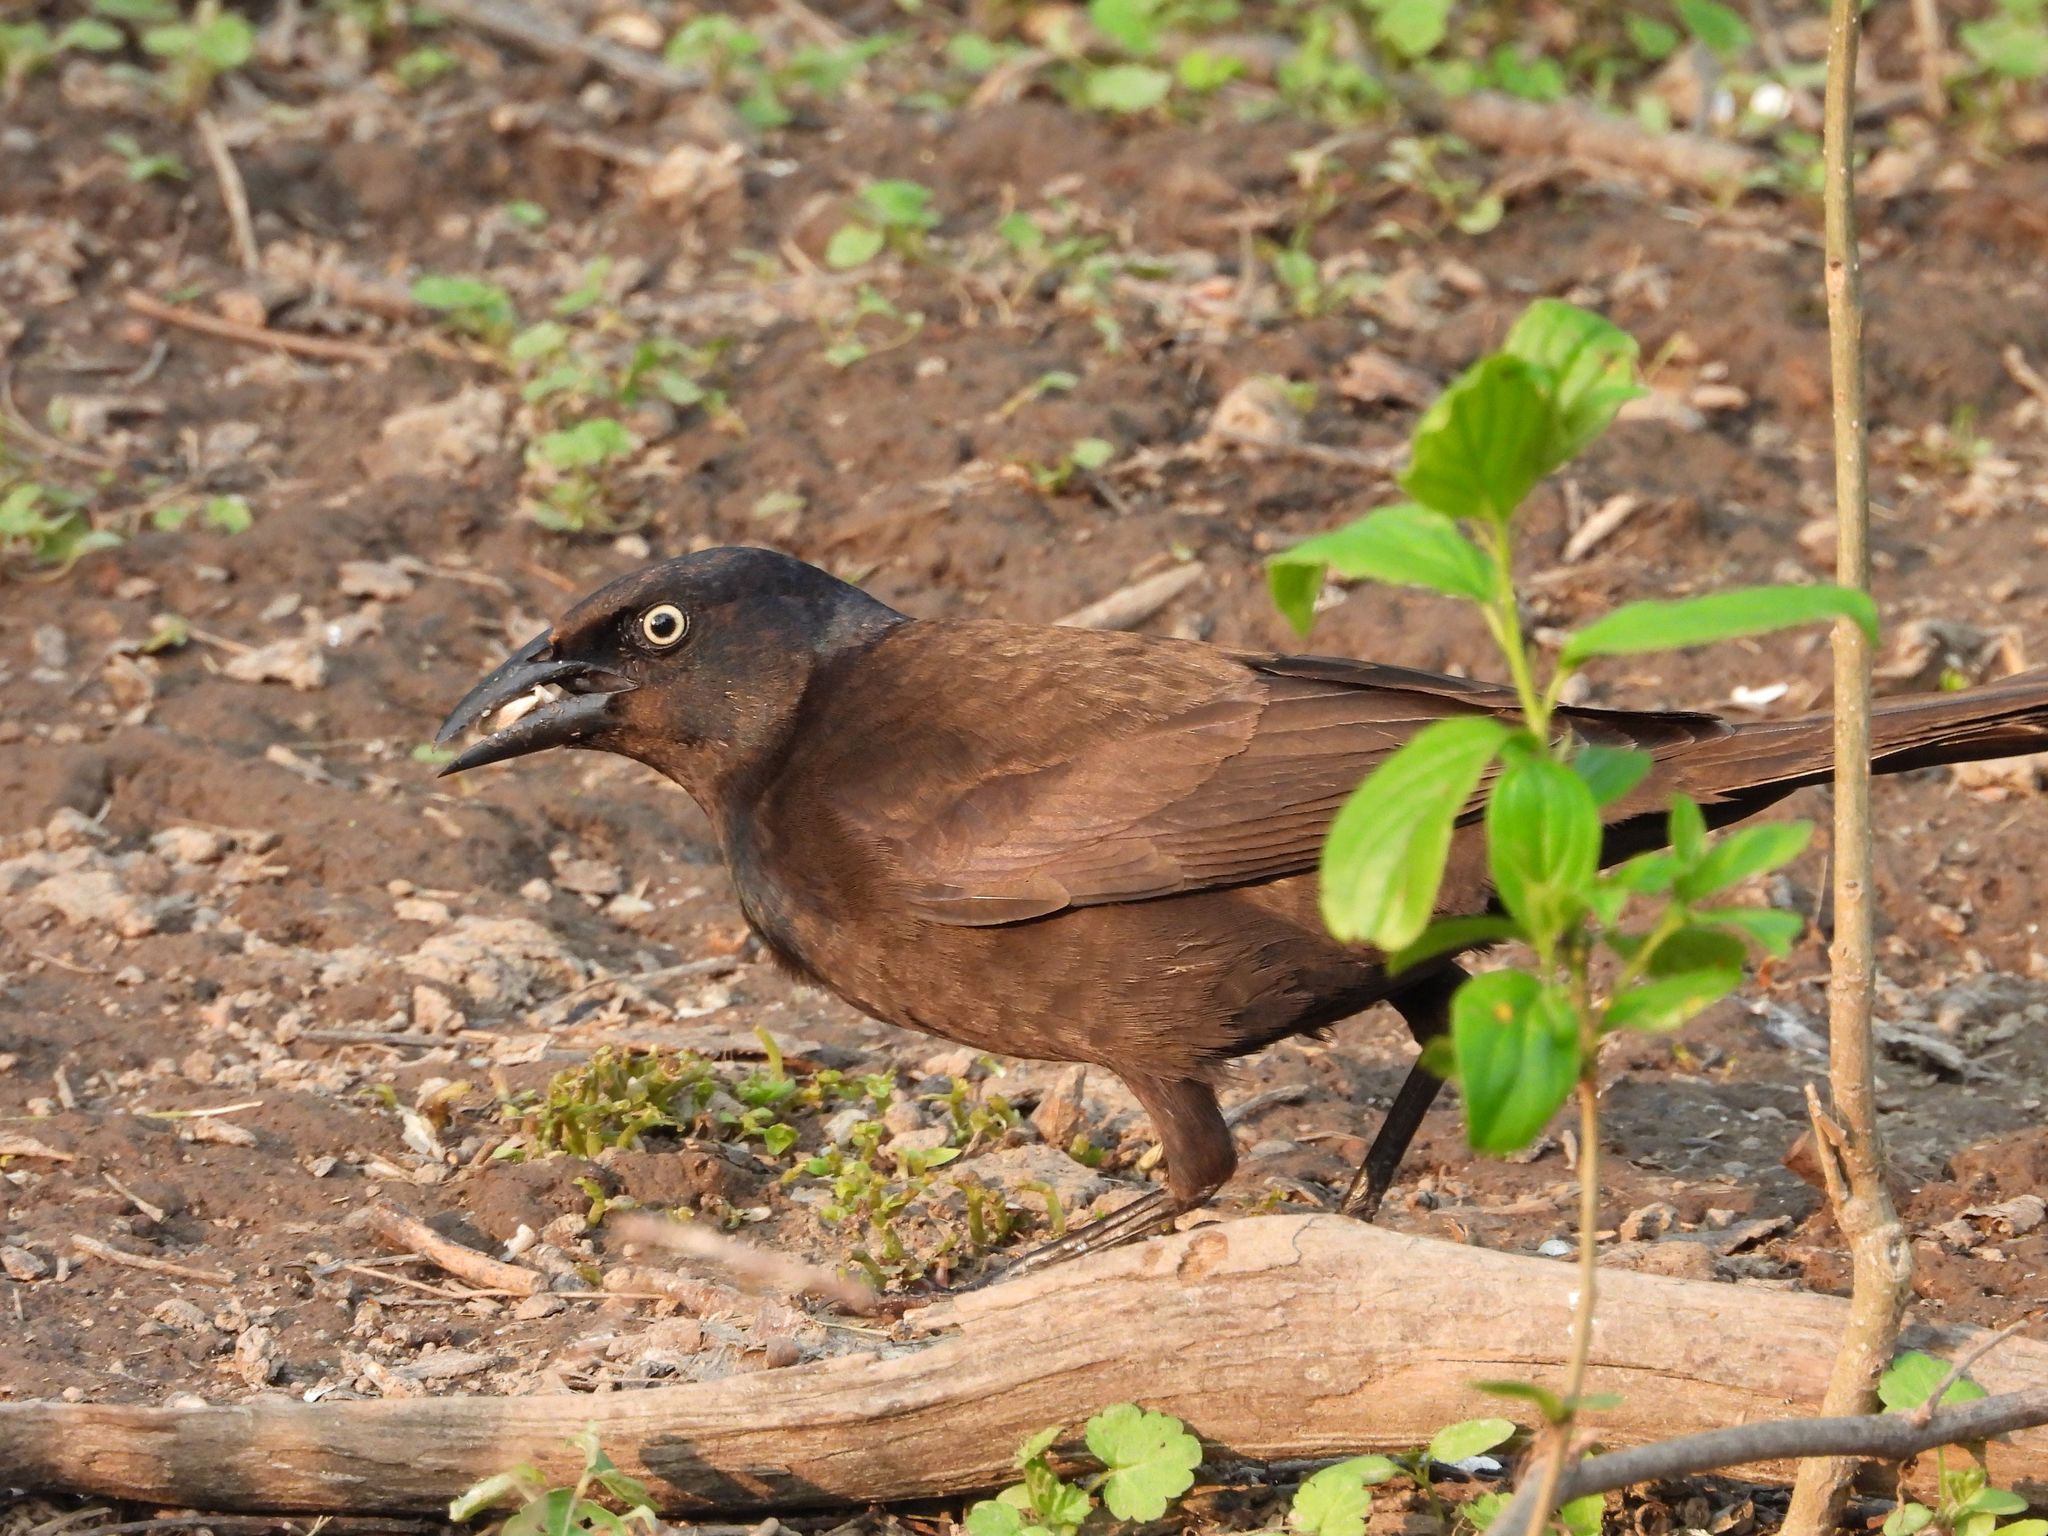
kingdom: Animalia
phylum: Chordata
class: Aves
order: Passeriformes
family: Icteridae
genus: Quiscalus
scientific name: Quiscalus quiscula
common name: Common grackle
